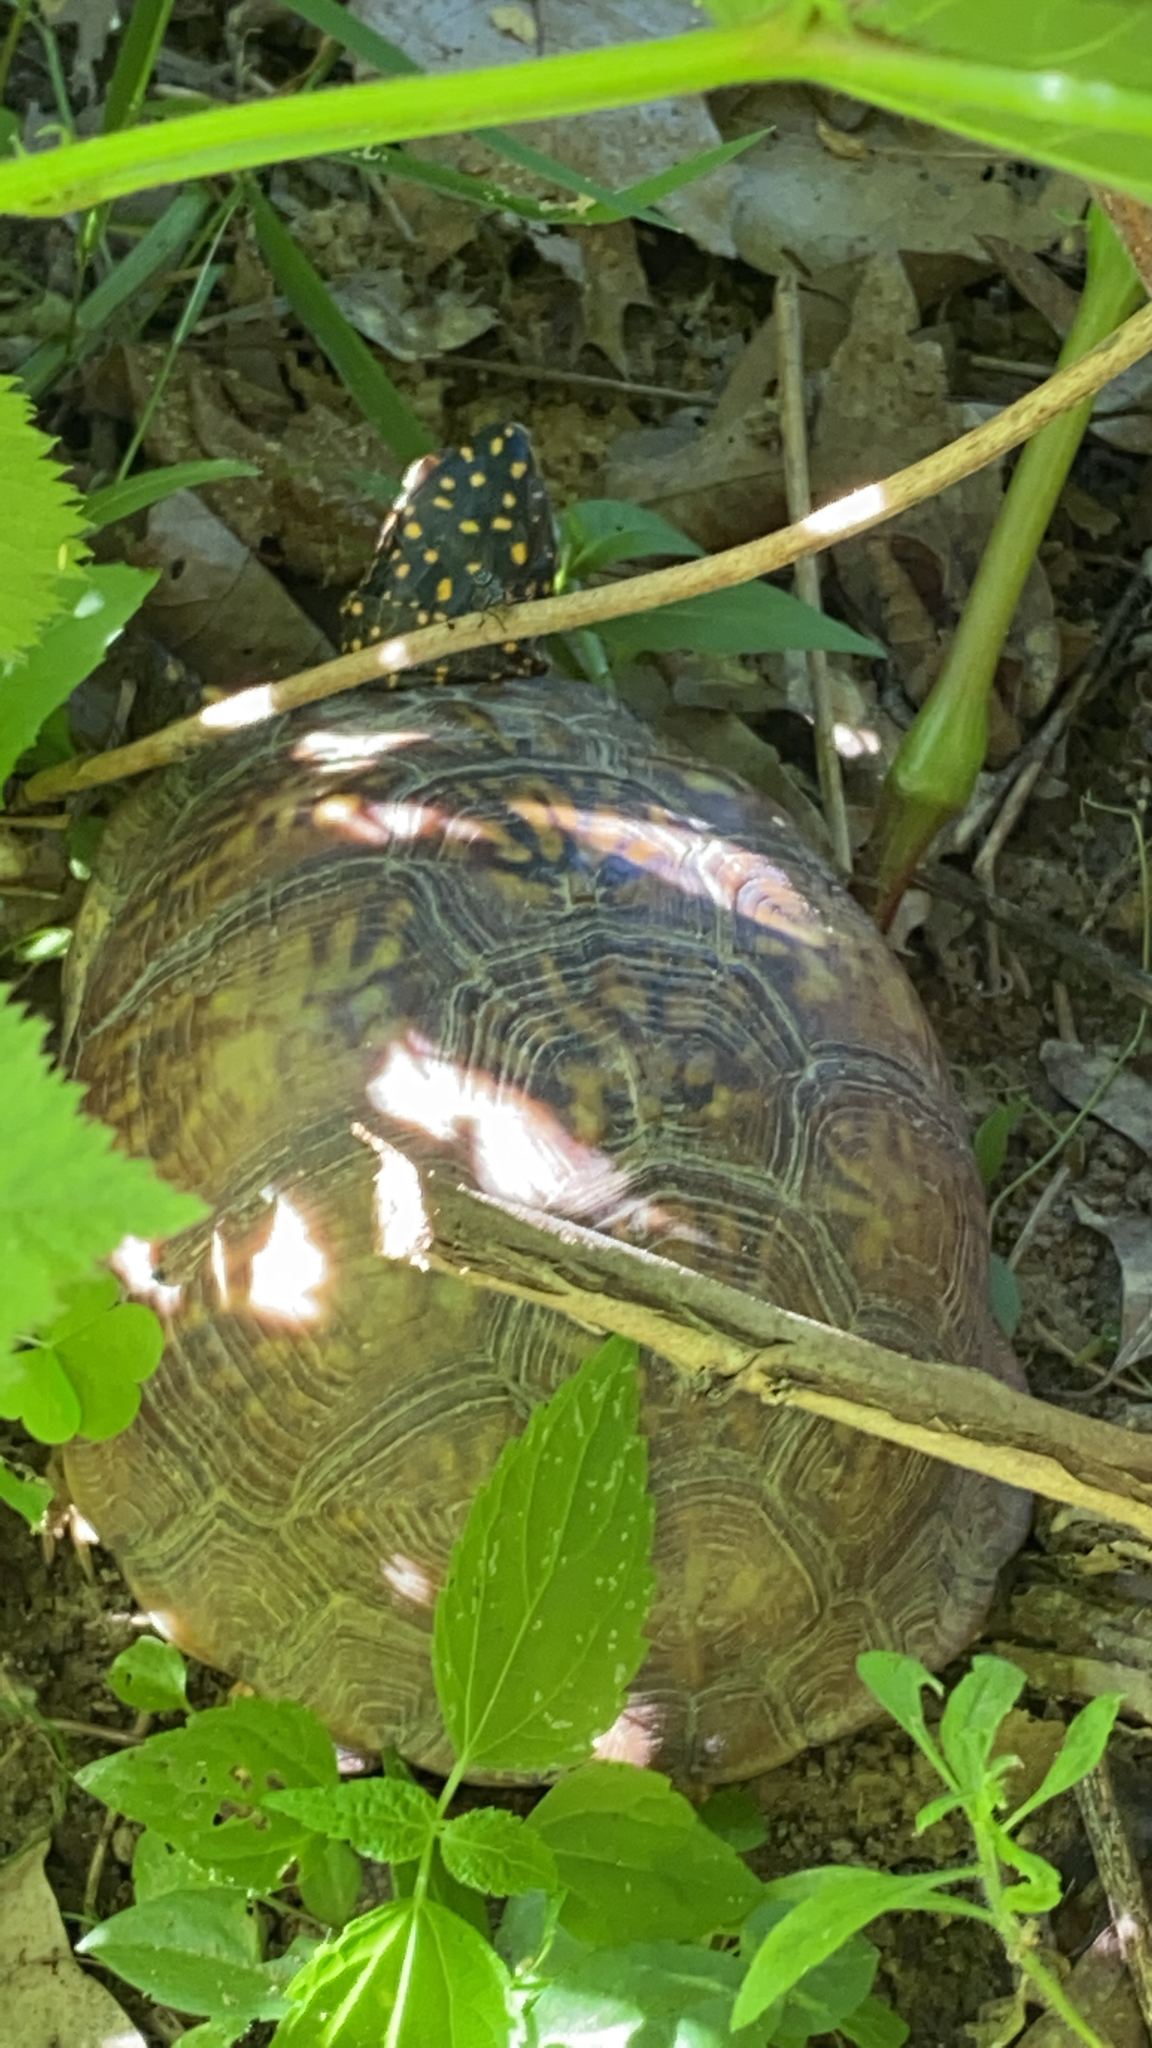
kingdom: Animalia
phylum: Chordata
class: Testudines
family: Emydidae
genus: Terrapene
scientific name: Terrapene carolina
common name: Common box turtle
